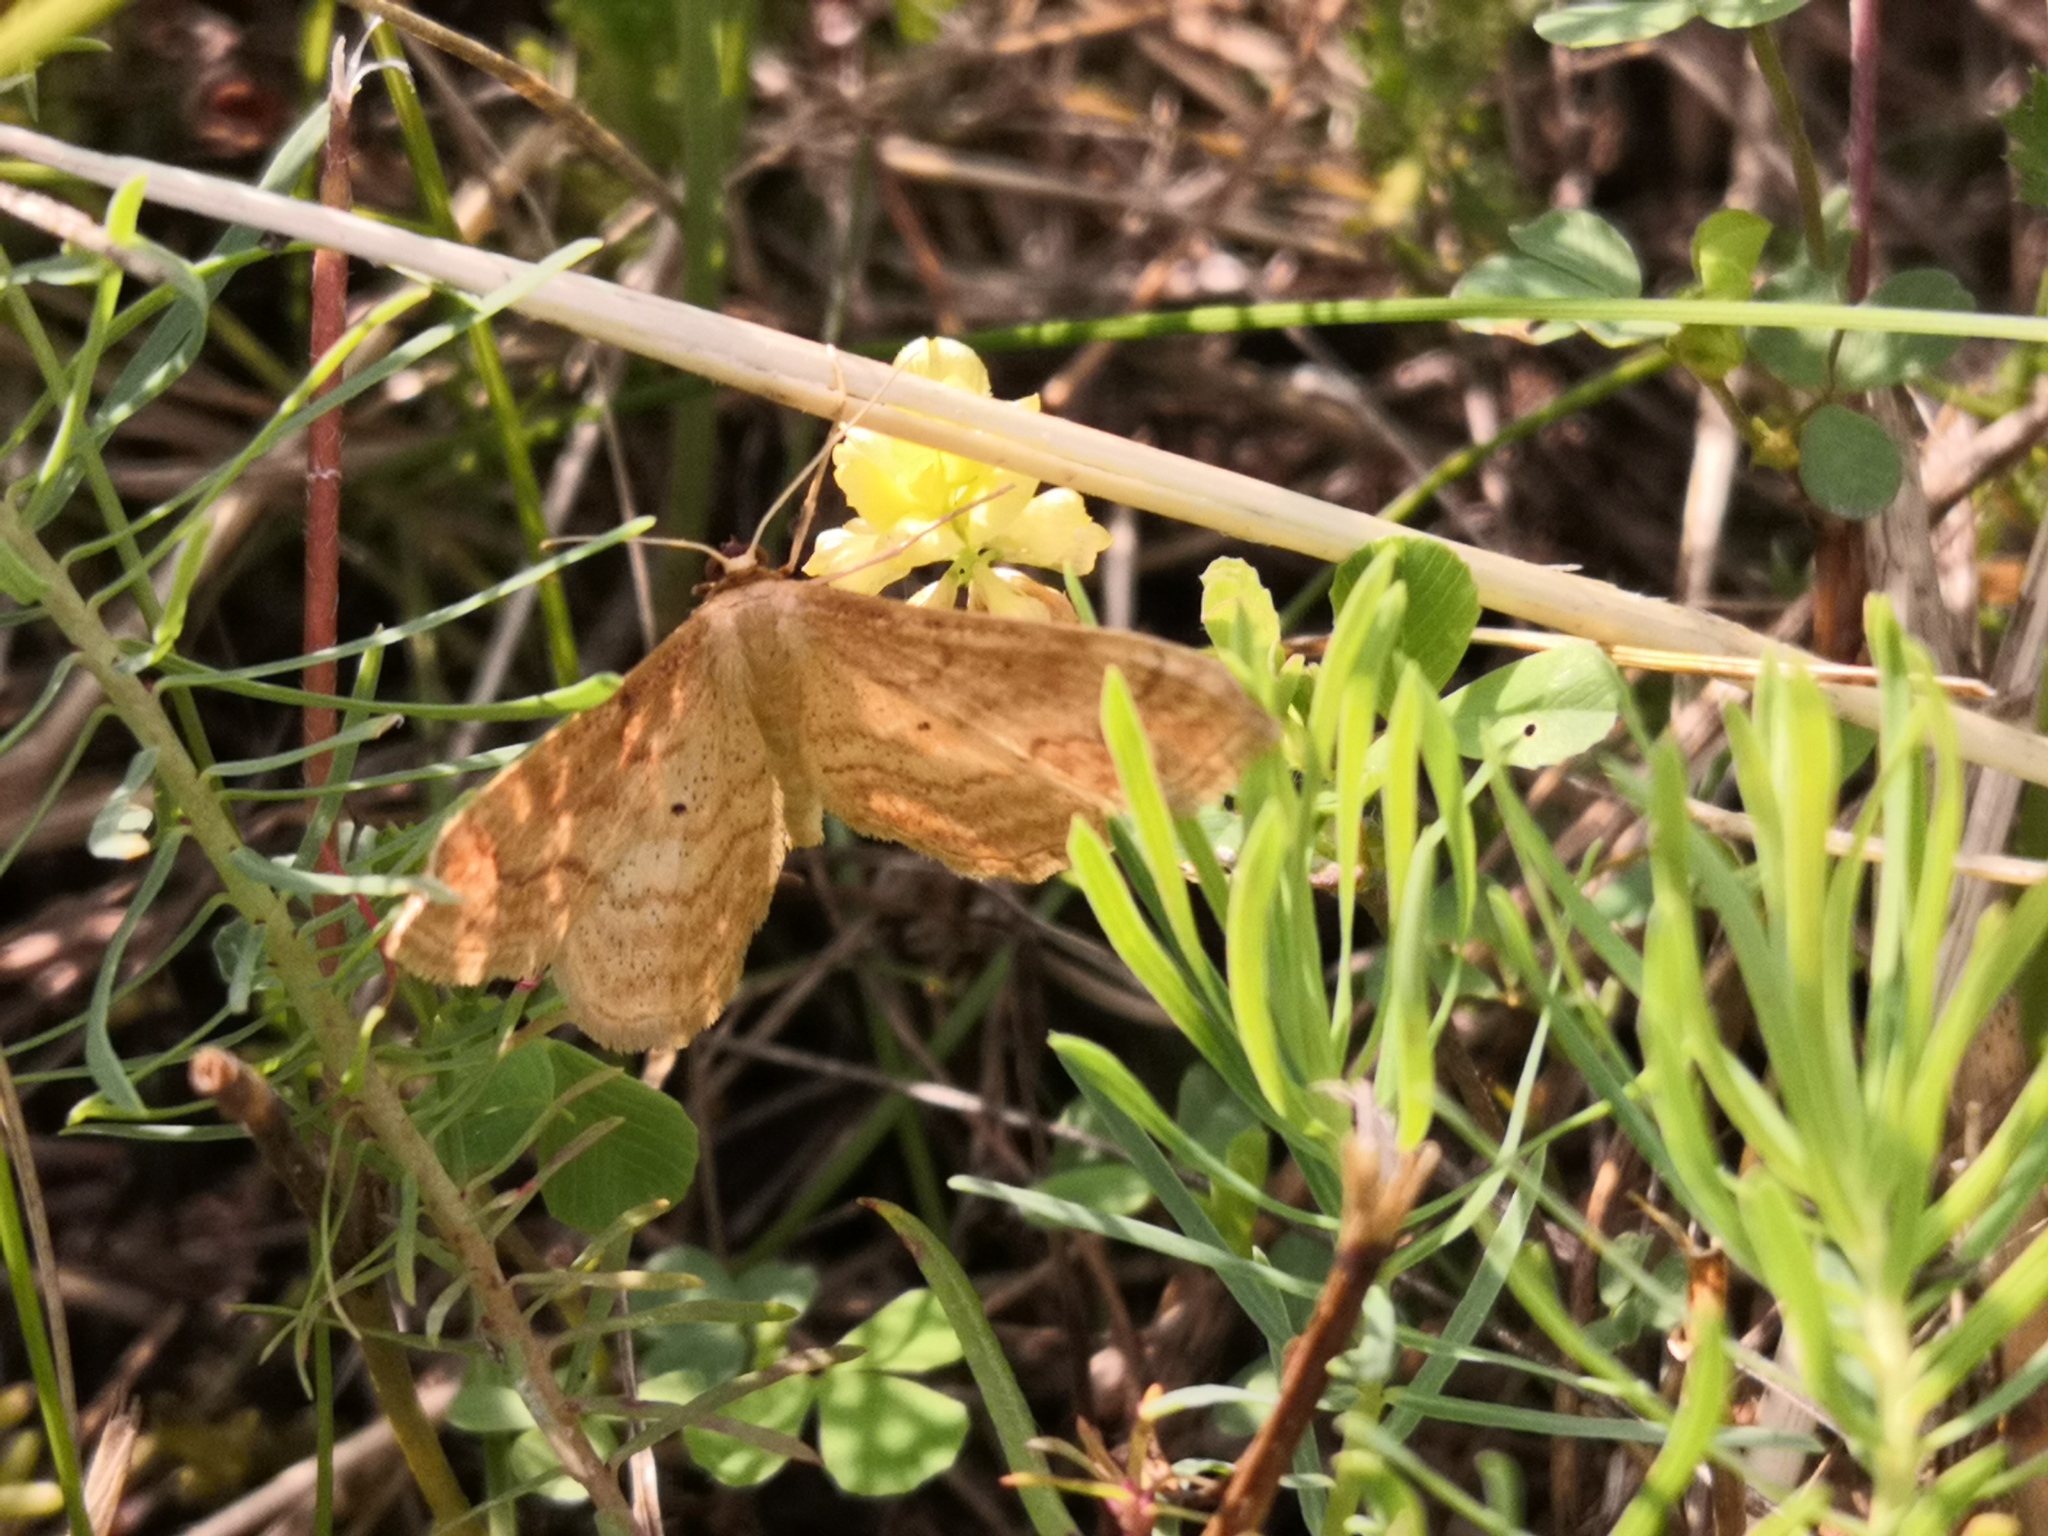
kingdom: Animalia
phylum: Arthropoda
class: Insecta
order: Lepidoptera
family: Geometridae
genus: Idaea
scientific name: Idaea rufaria
